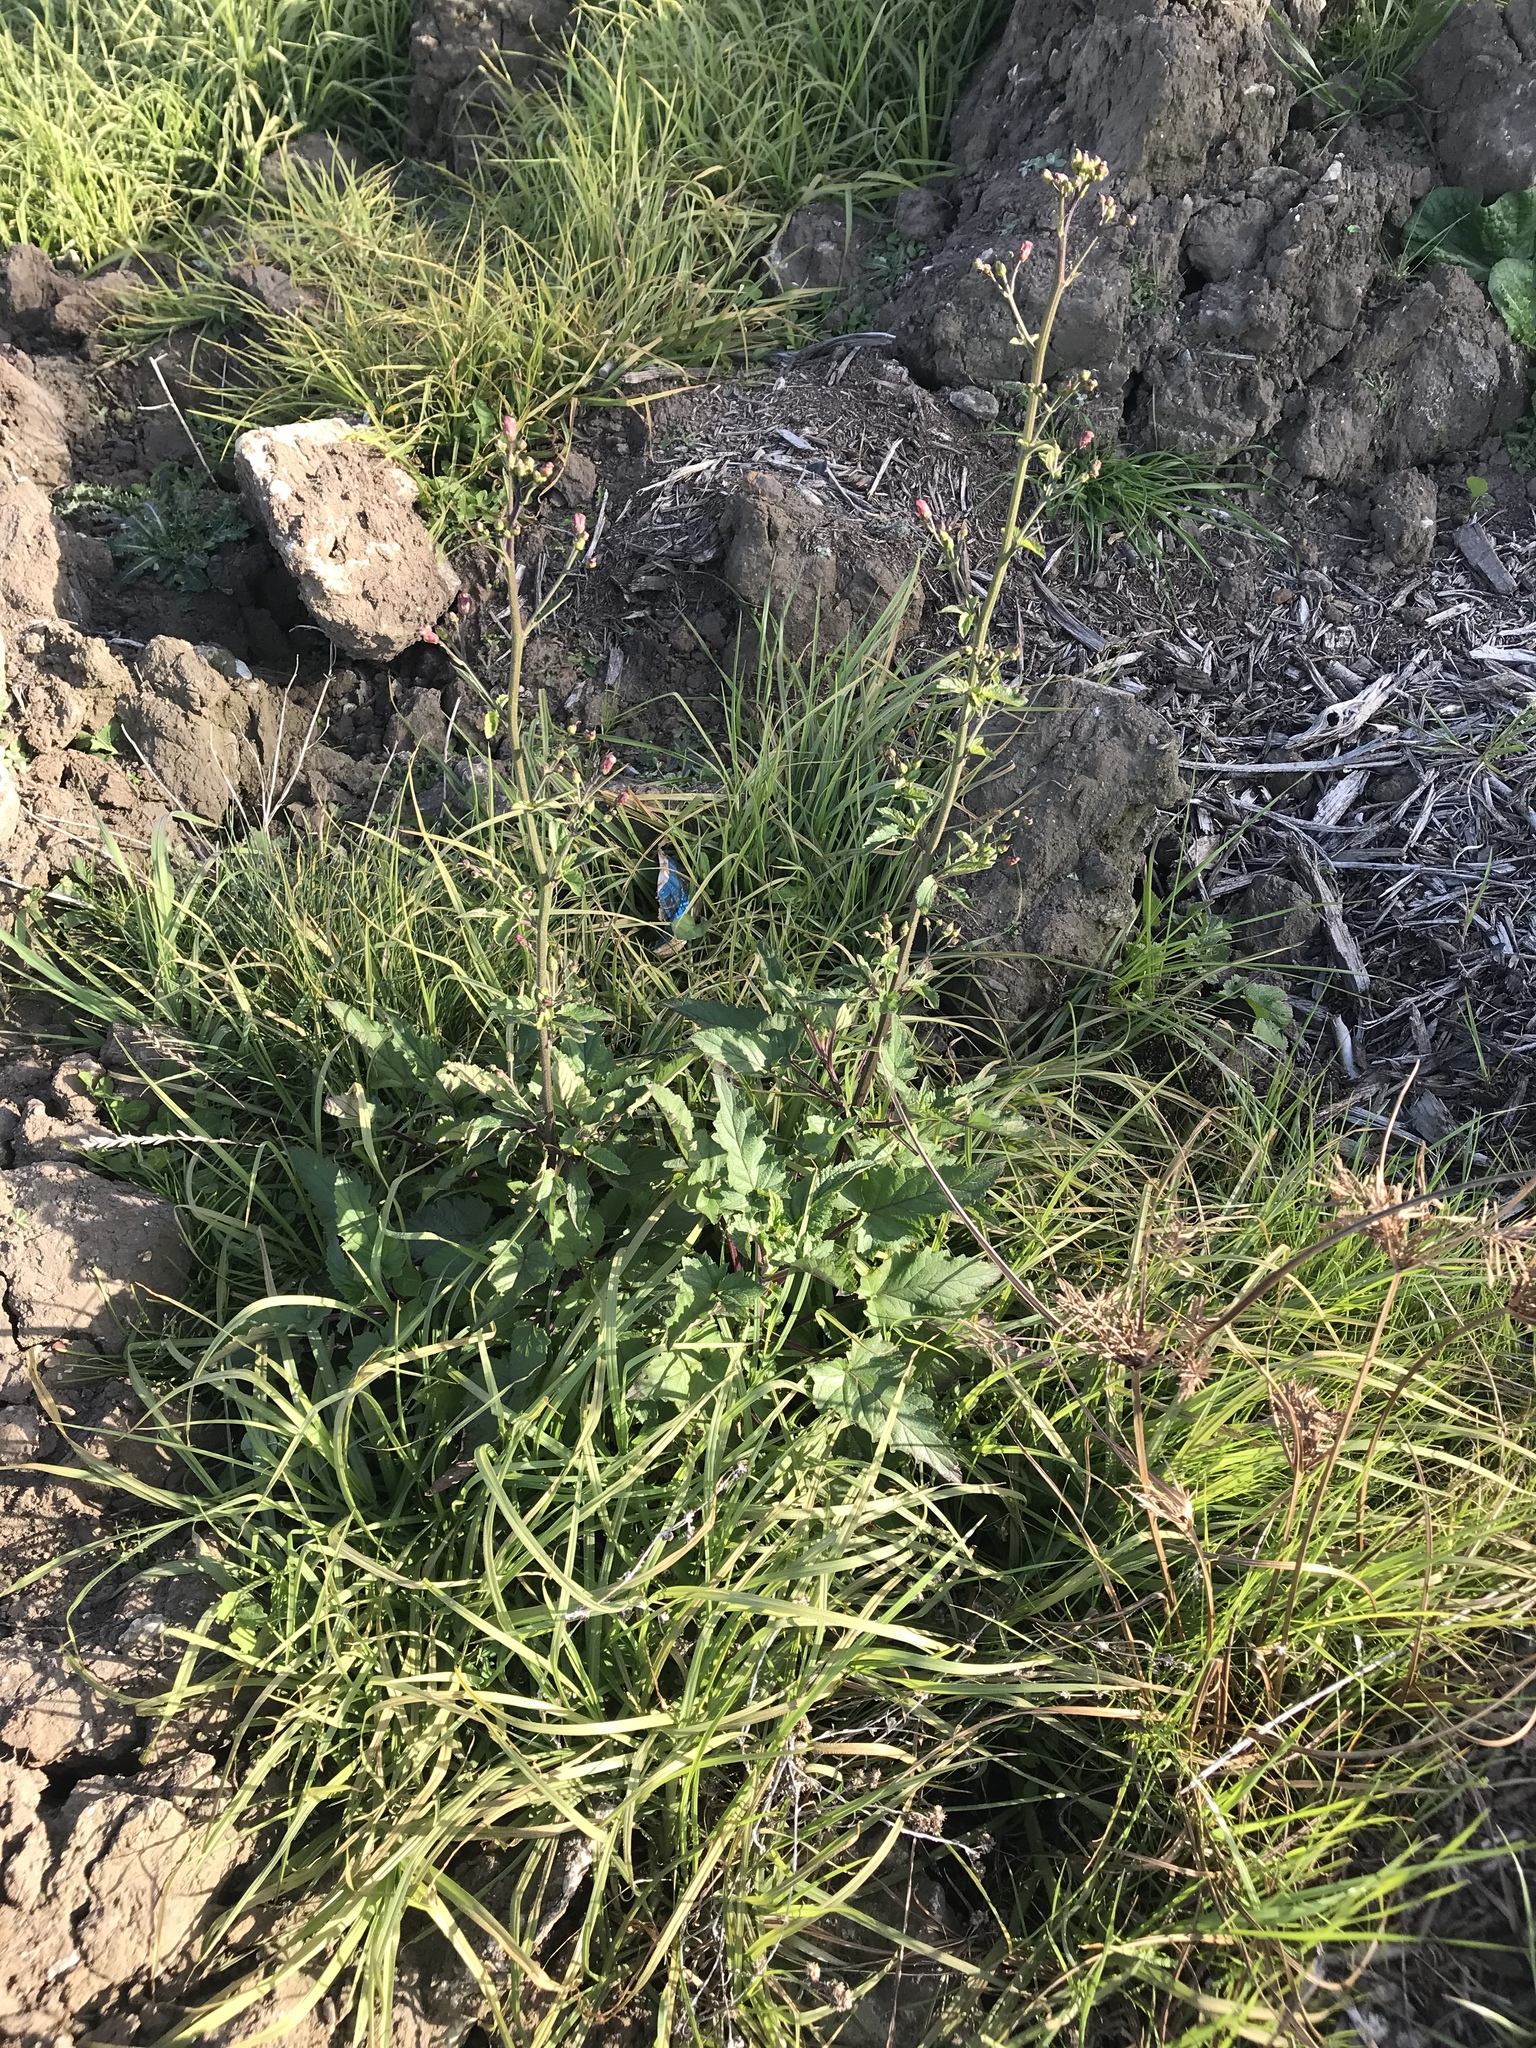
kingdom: Plantae
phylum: Tracheophyta
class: Magnoliopsida
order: Lamiales
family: Scrophulariaceae
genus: Scrophularia
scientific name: Scrophularia californica
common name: California figwort
